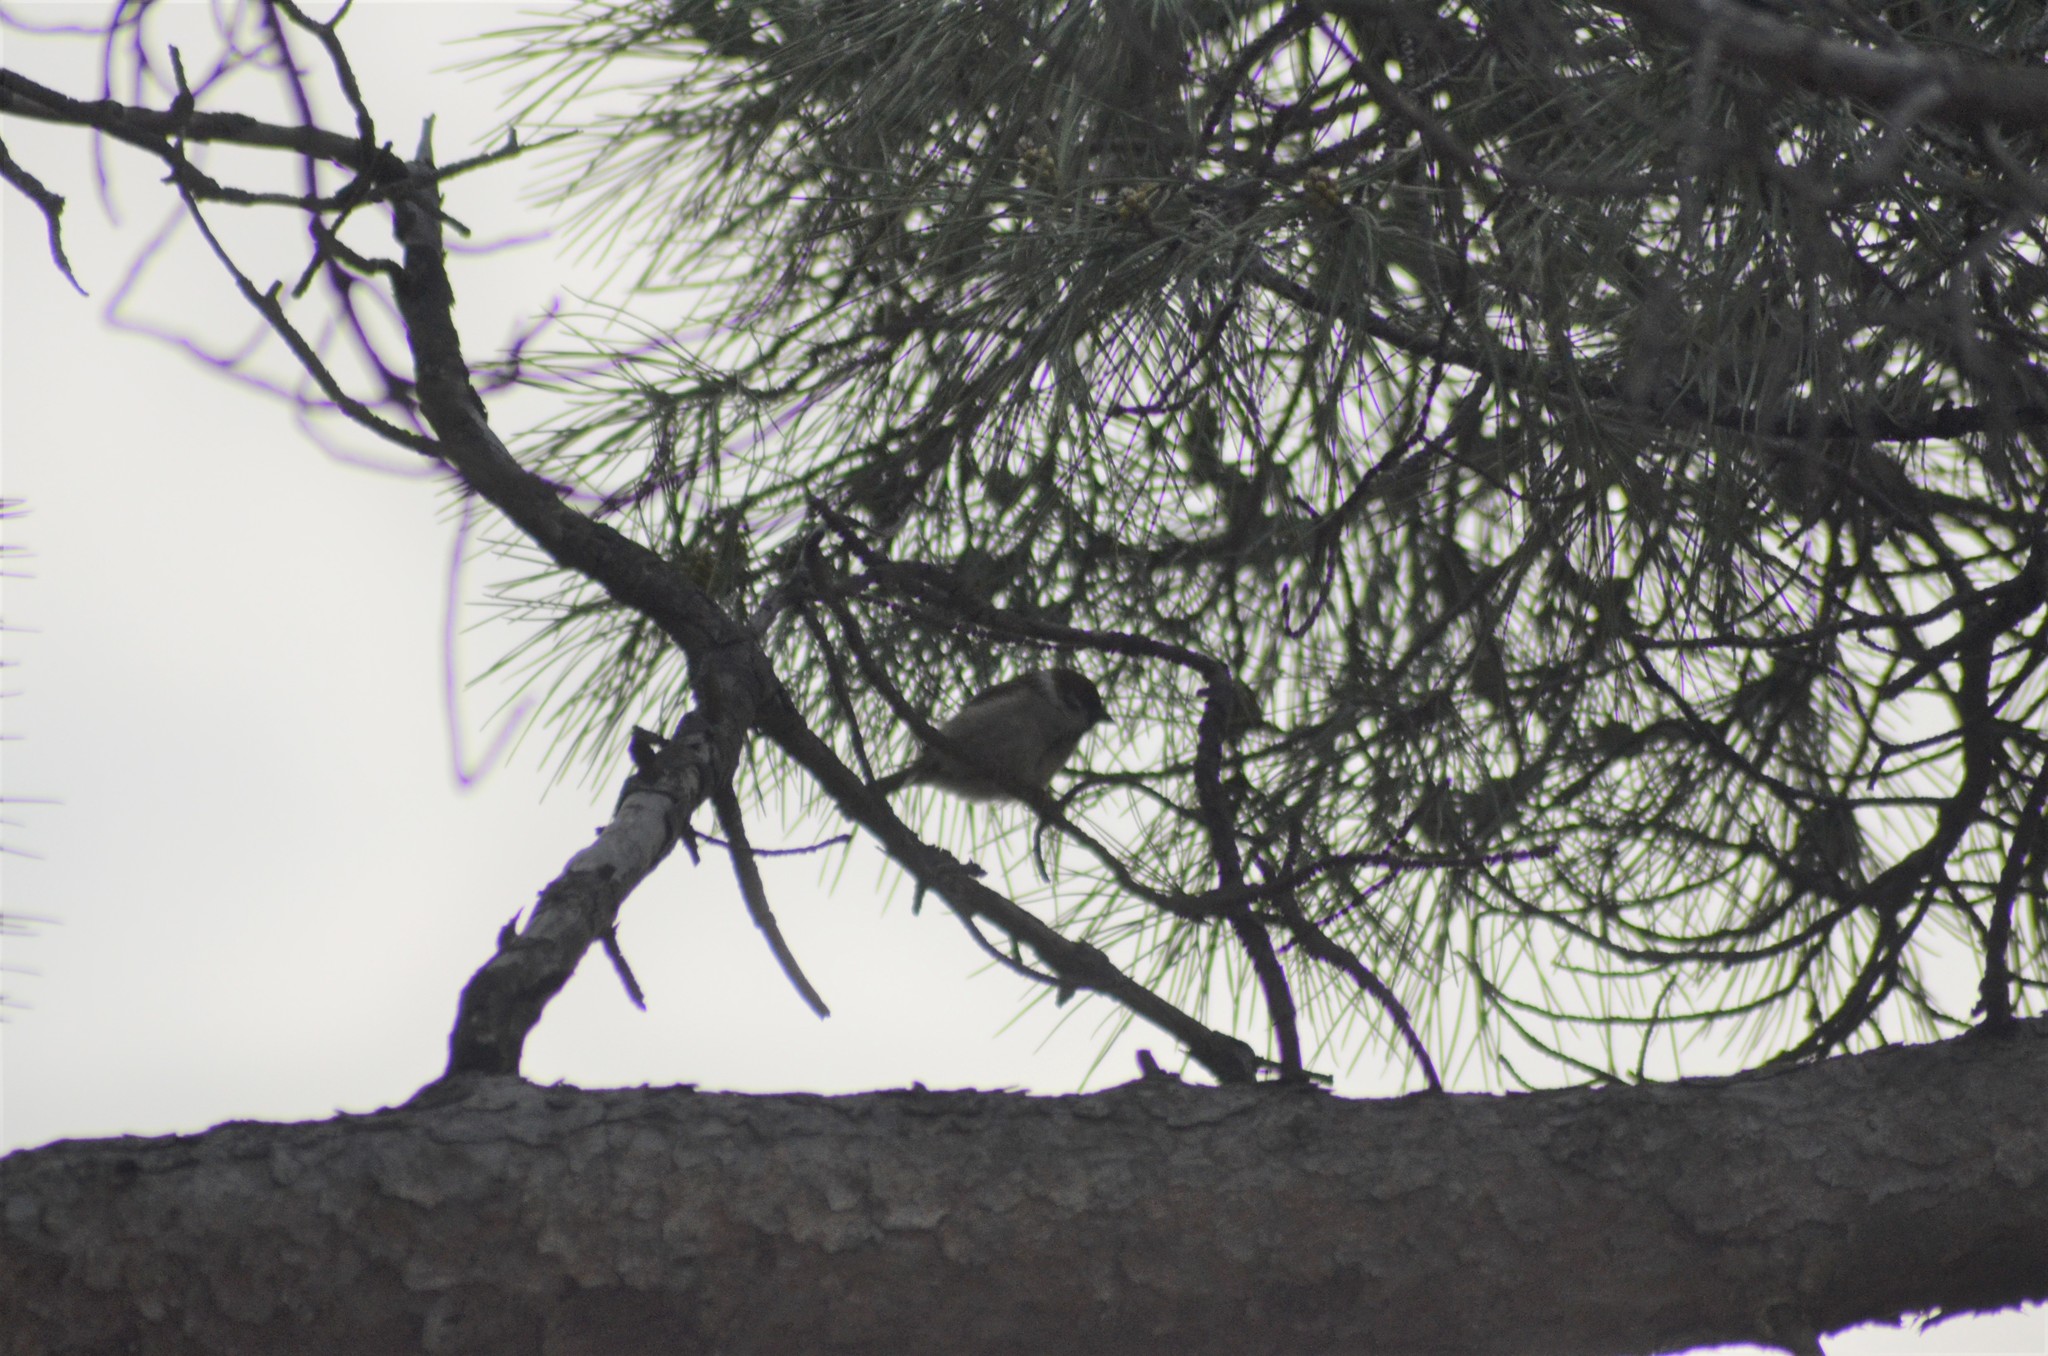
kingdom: Animalia
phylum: Chordata
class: Aves
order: Passeriformes
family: Passeridae
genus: Passer
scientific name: Passer montanus
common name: Eurasian tree sparrow
